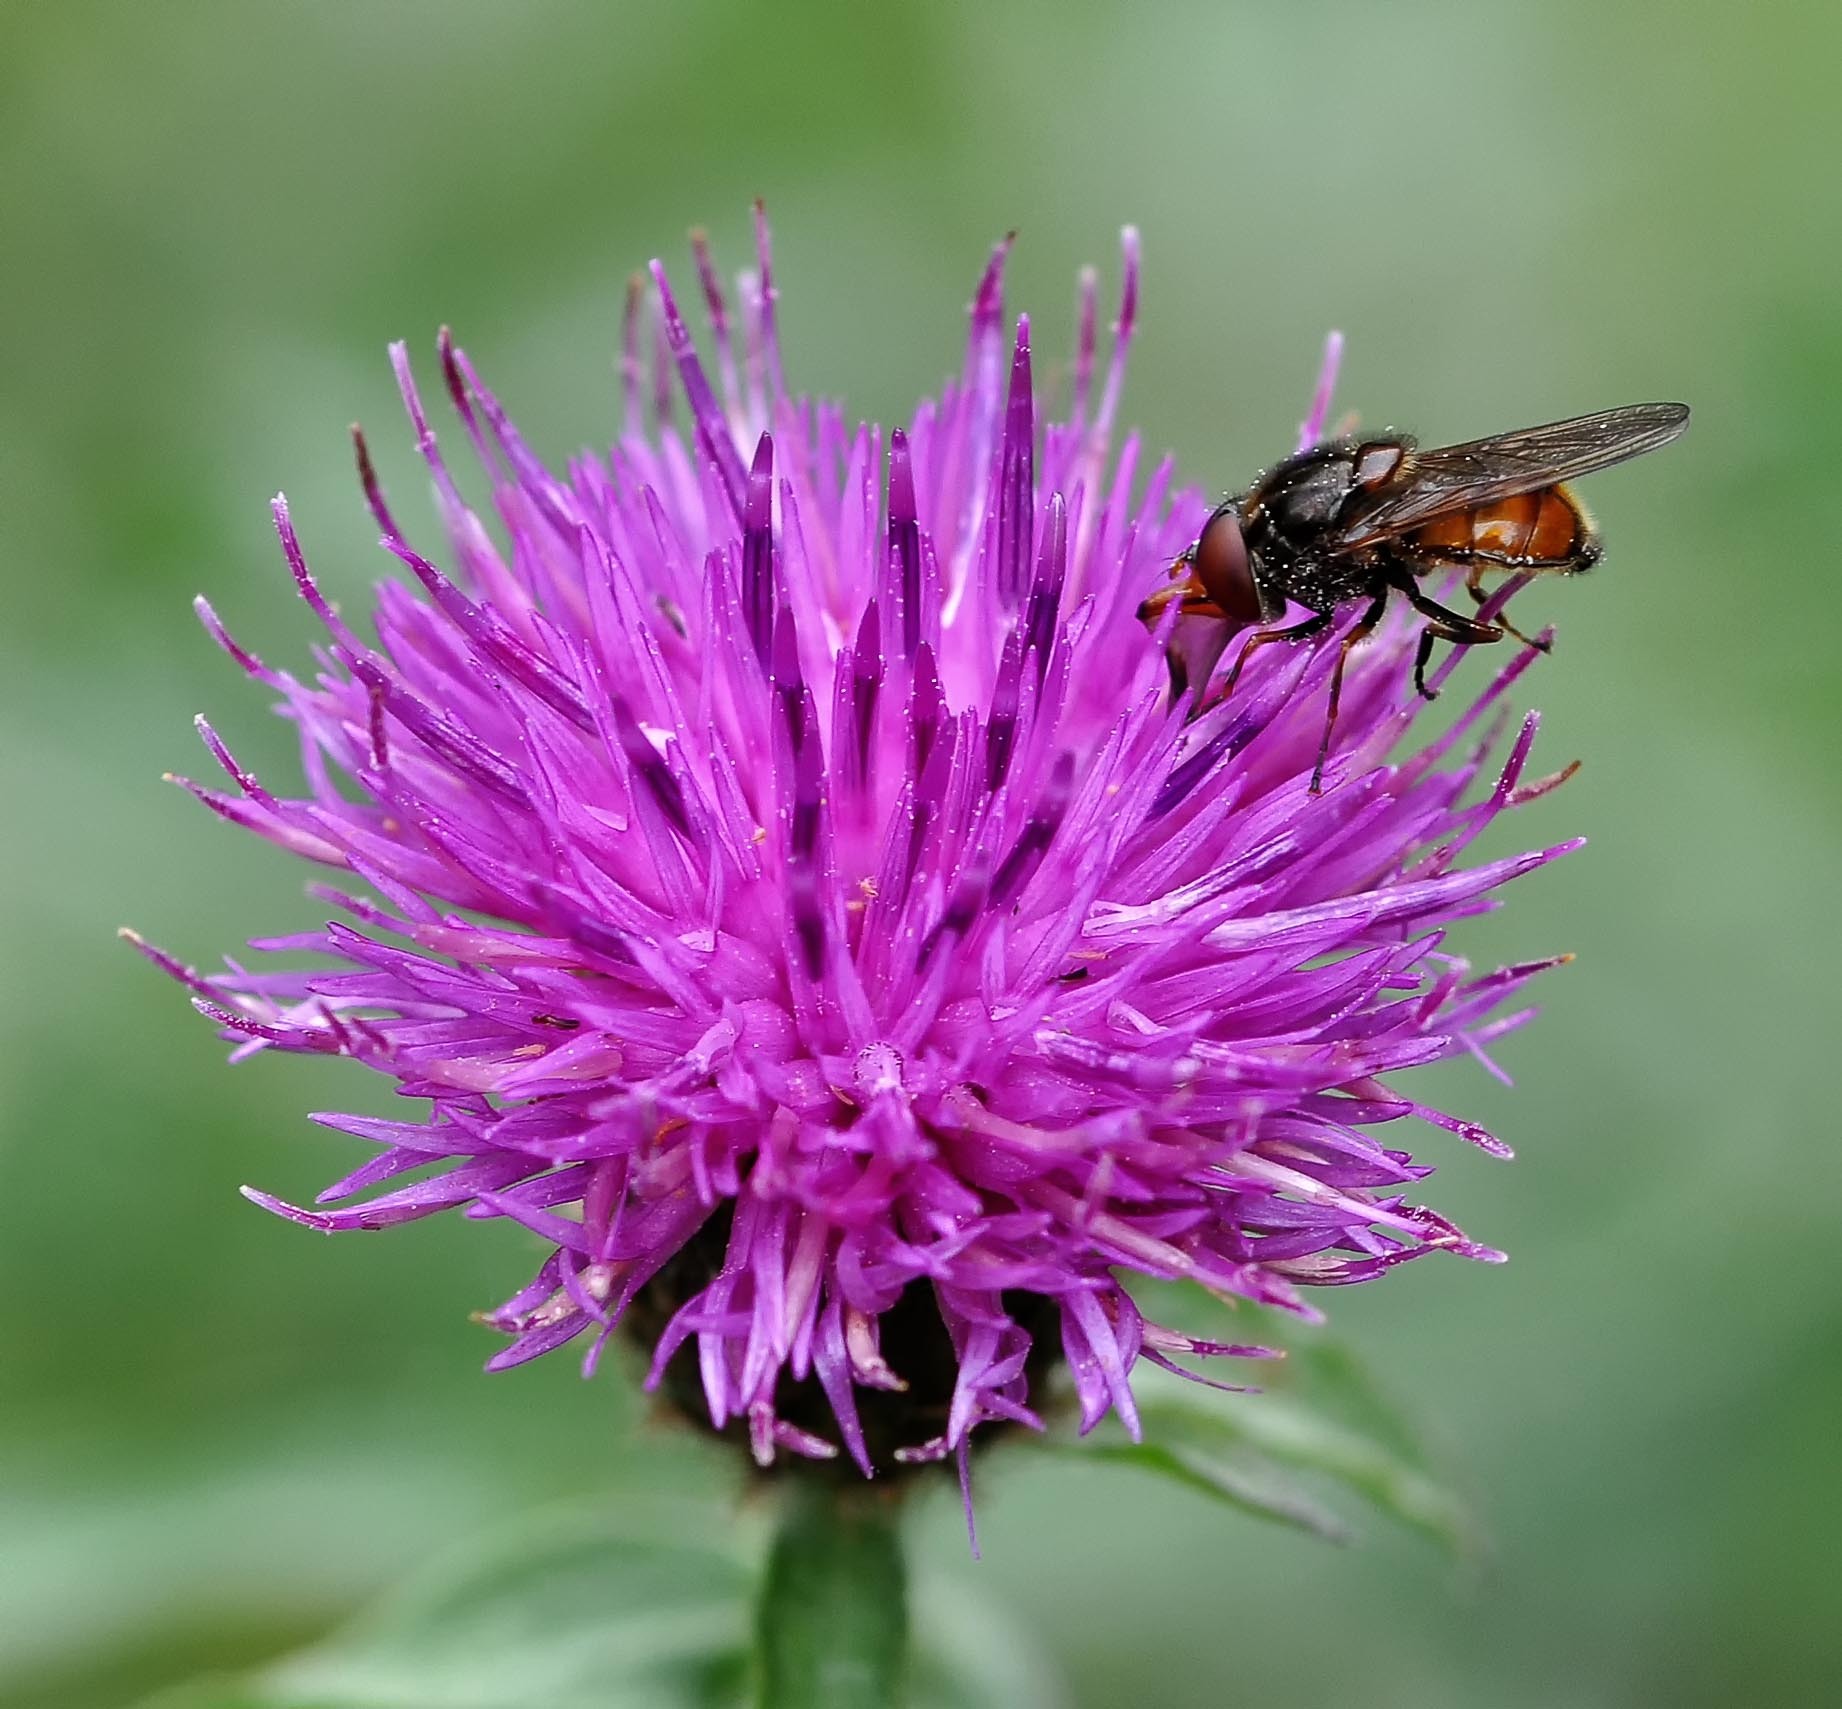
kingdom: Animalia
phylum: Arthropoda
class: Insecta
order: Diptera
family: Syrphidae
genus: Rhingia
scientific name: Rhingia campestris
